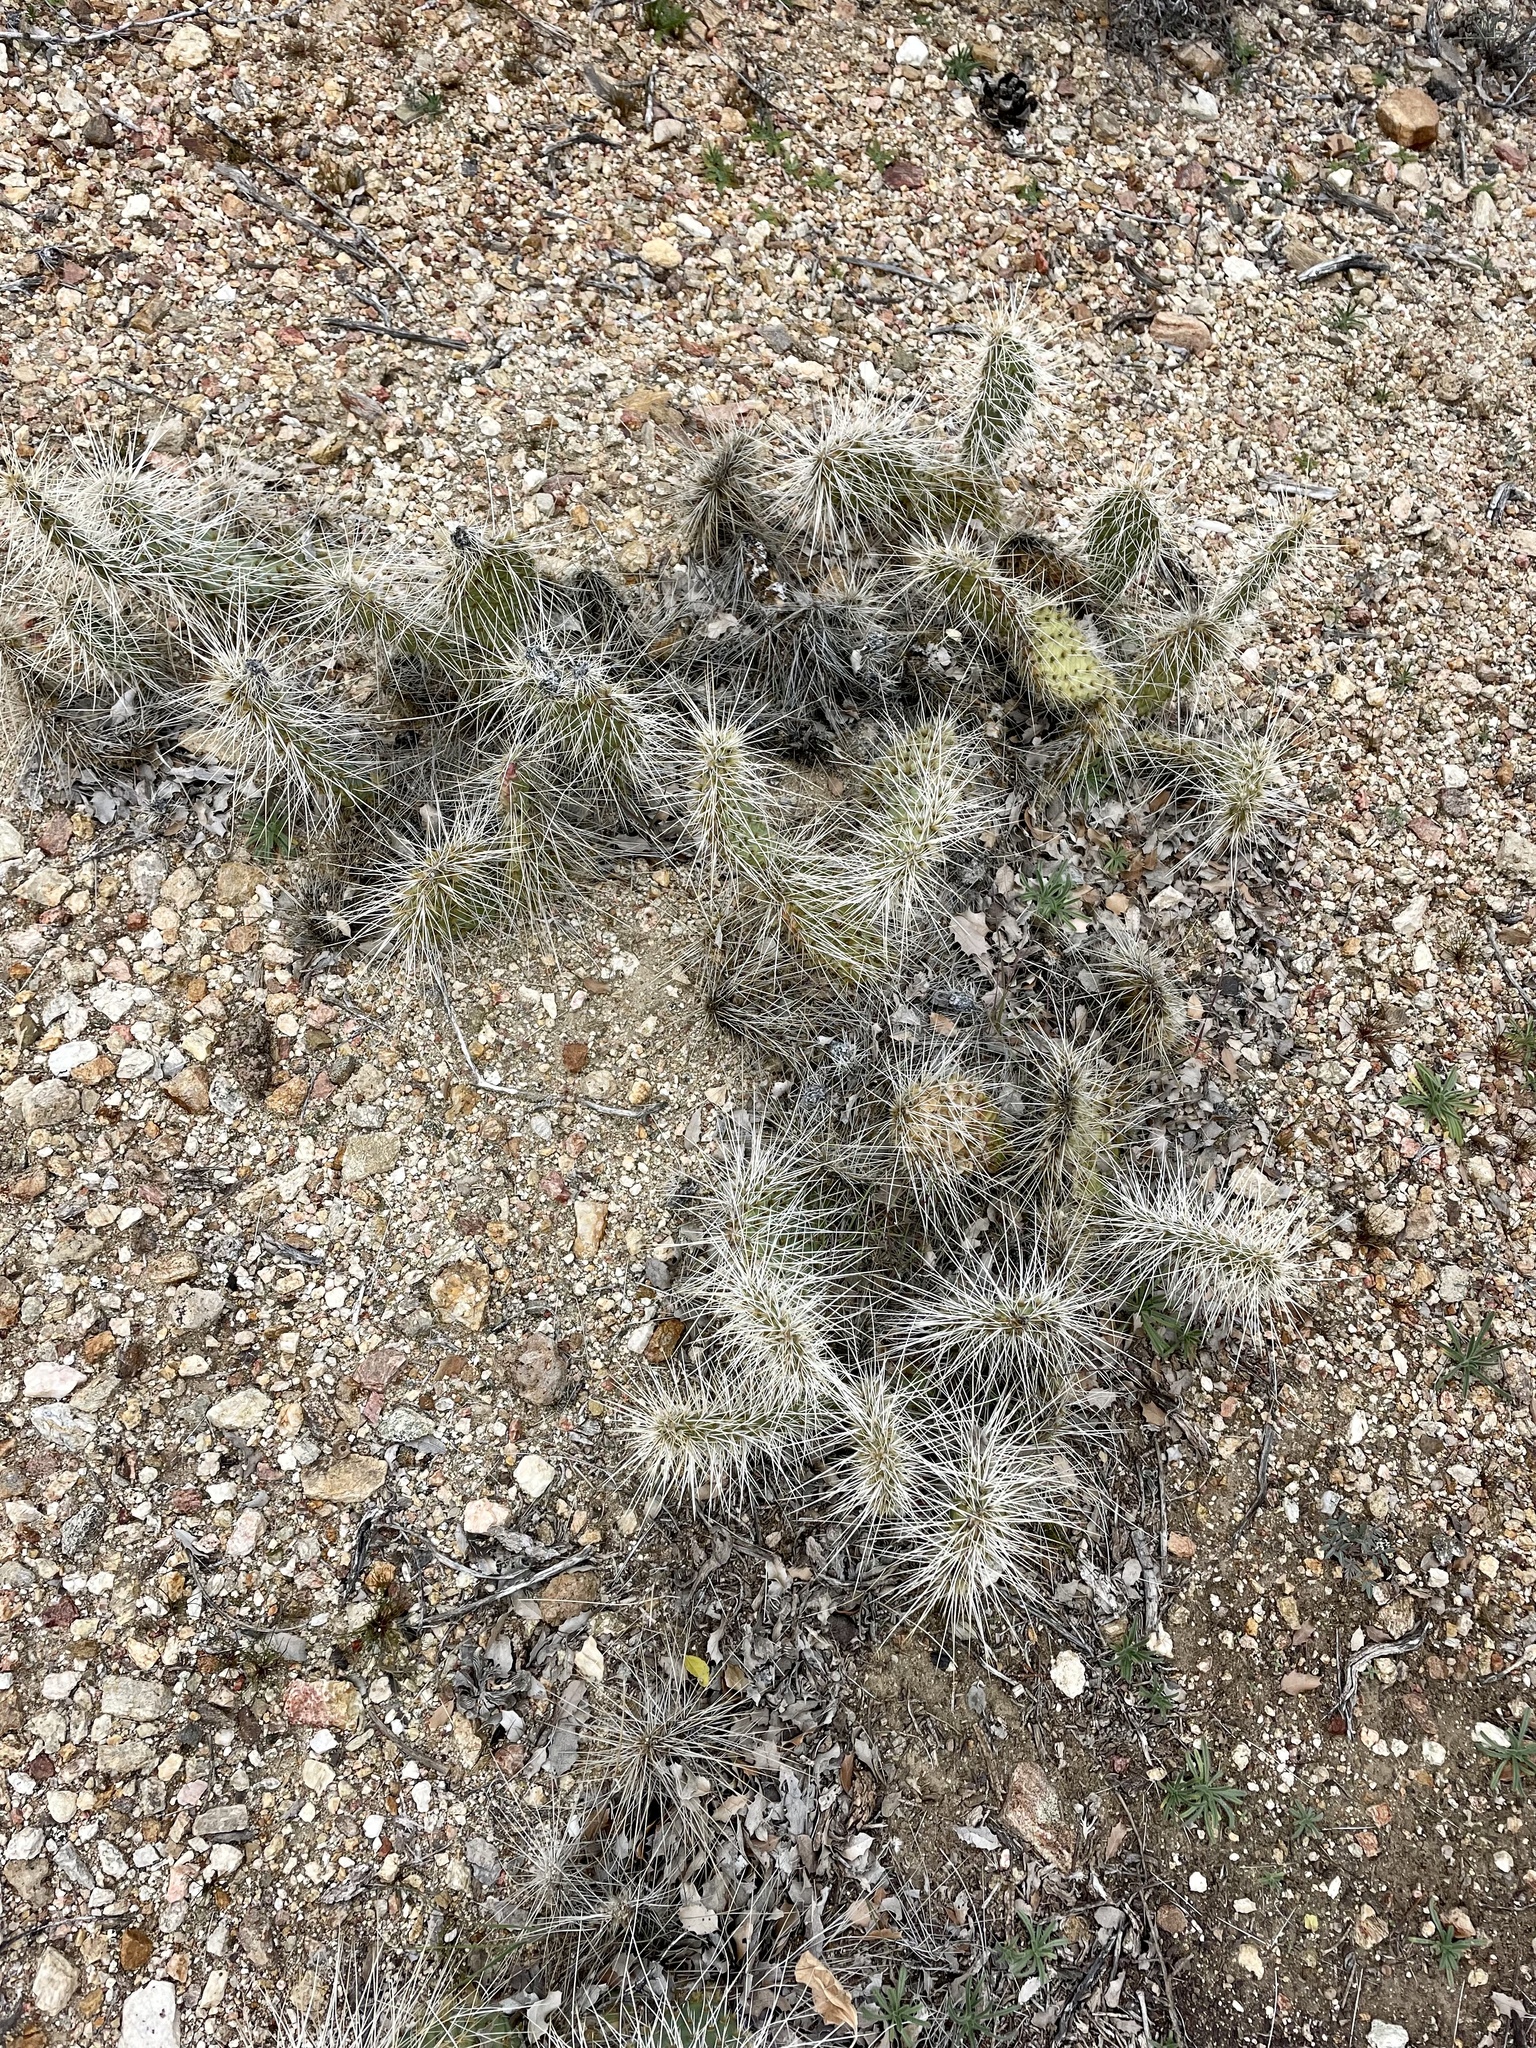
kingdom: Plantae
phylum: Tracheophyta
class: Magnoliopsida
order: Caryophyllales
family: Cactaceae
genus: Opuntia
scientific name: Opuntia polyacantha
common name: Plains prickly-pear
